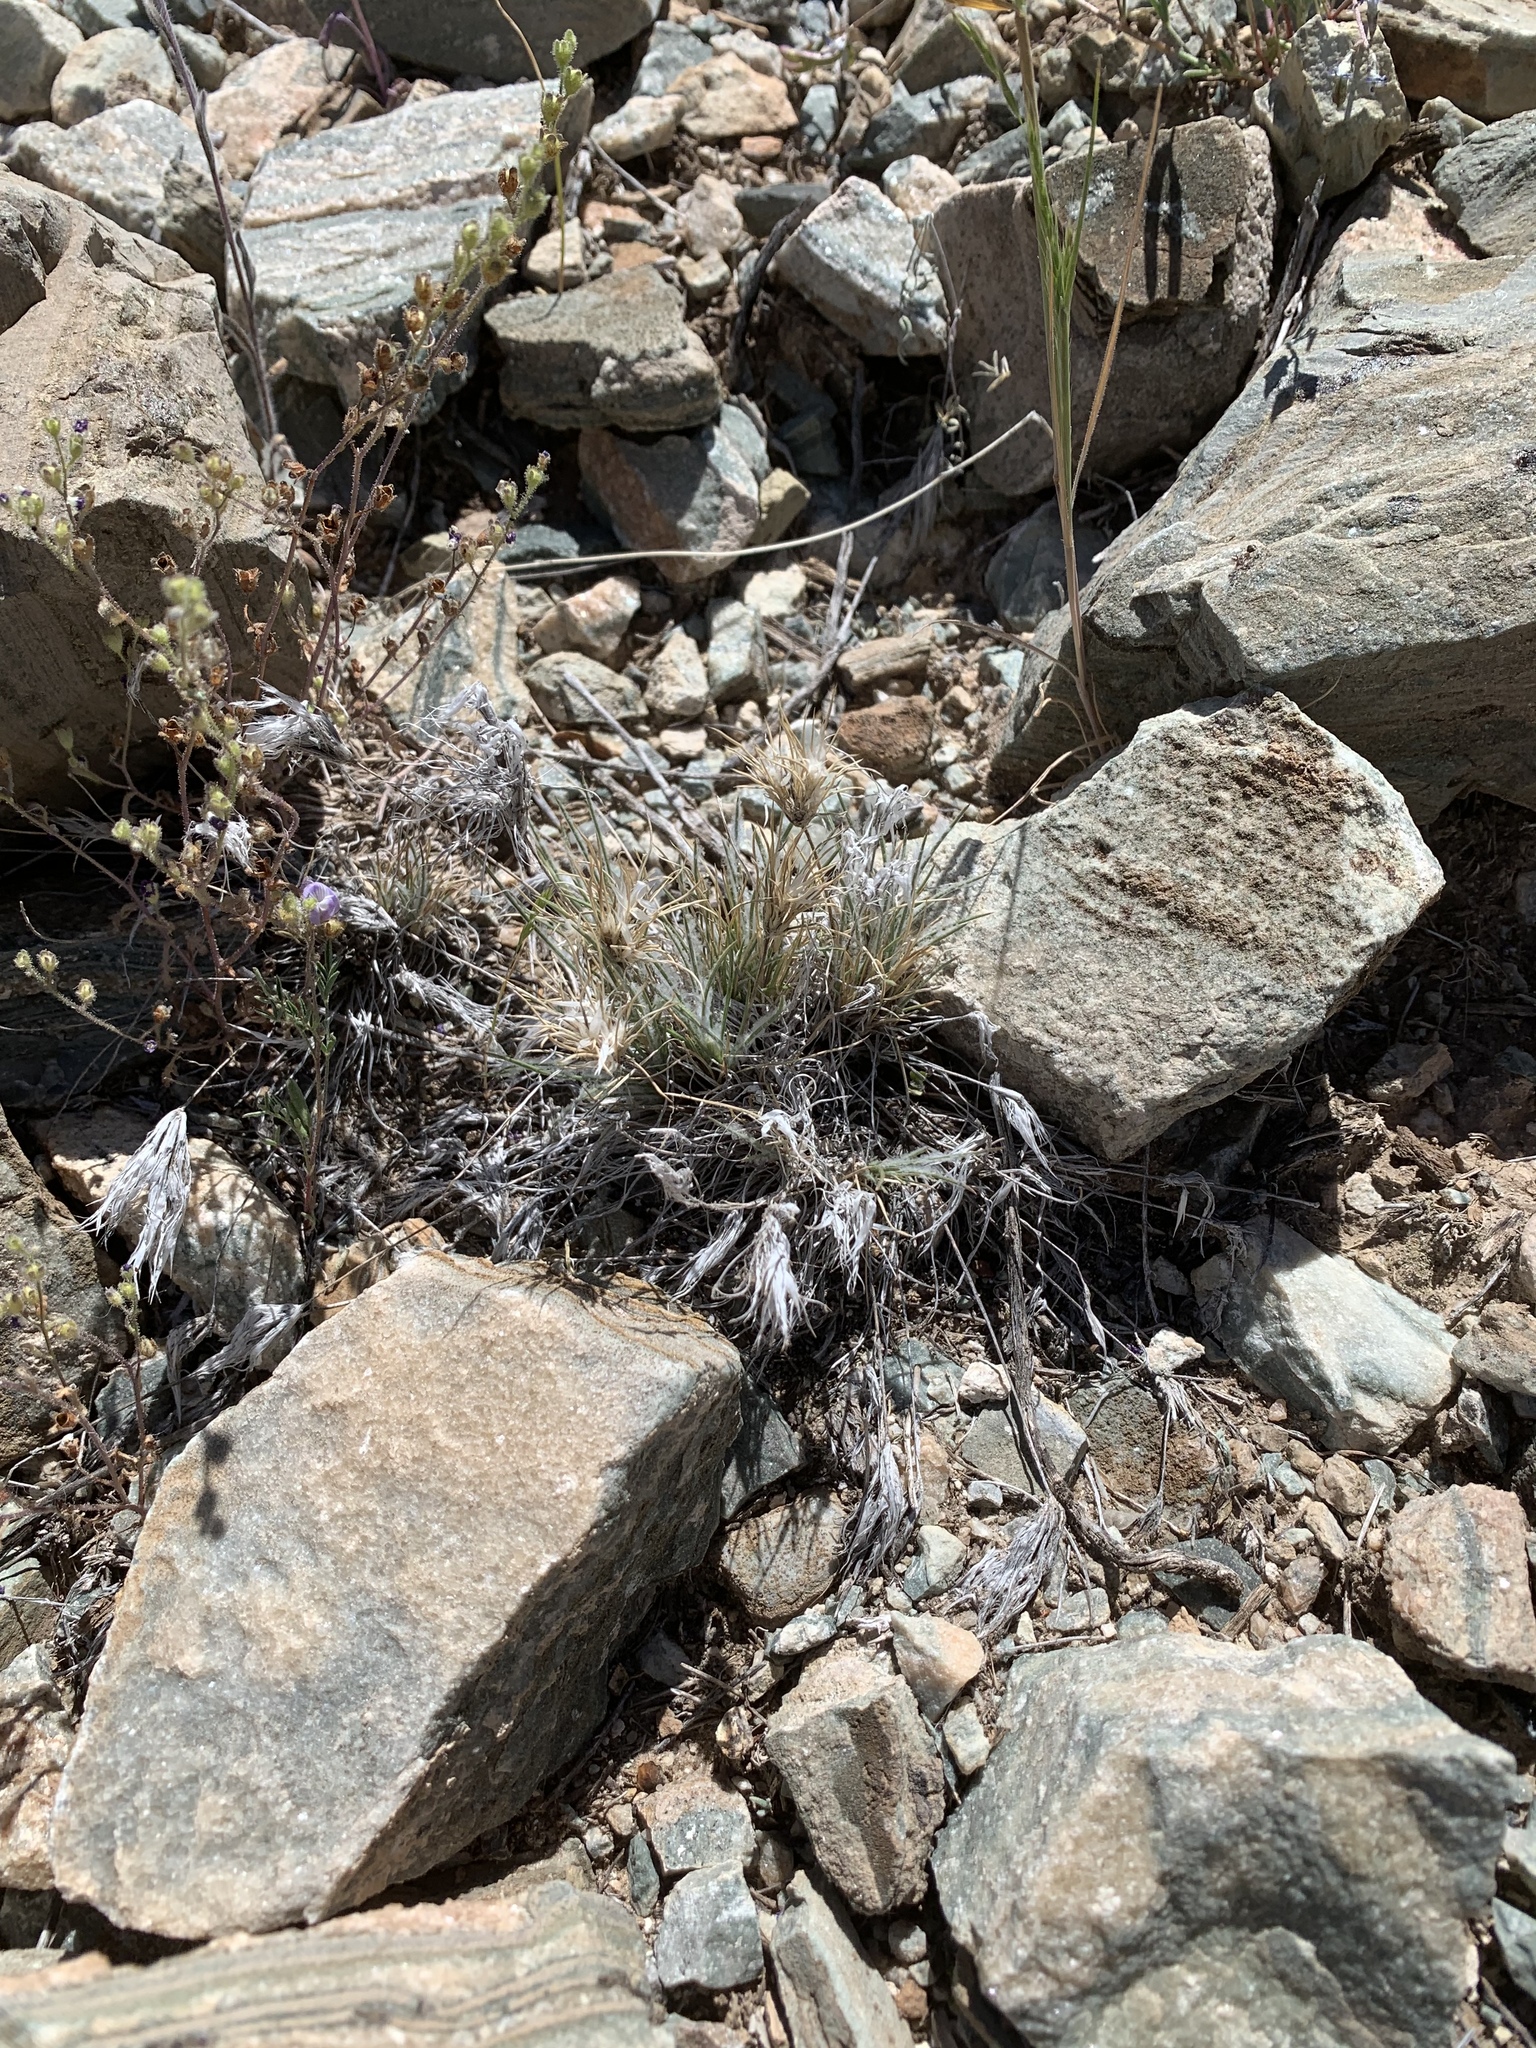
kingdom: Plantae
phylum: Tracheophyta
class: Liliopsida
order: Poales
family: Poaceae
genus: Dasyochloa
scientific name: Dasyochloa pulchella
